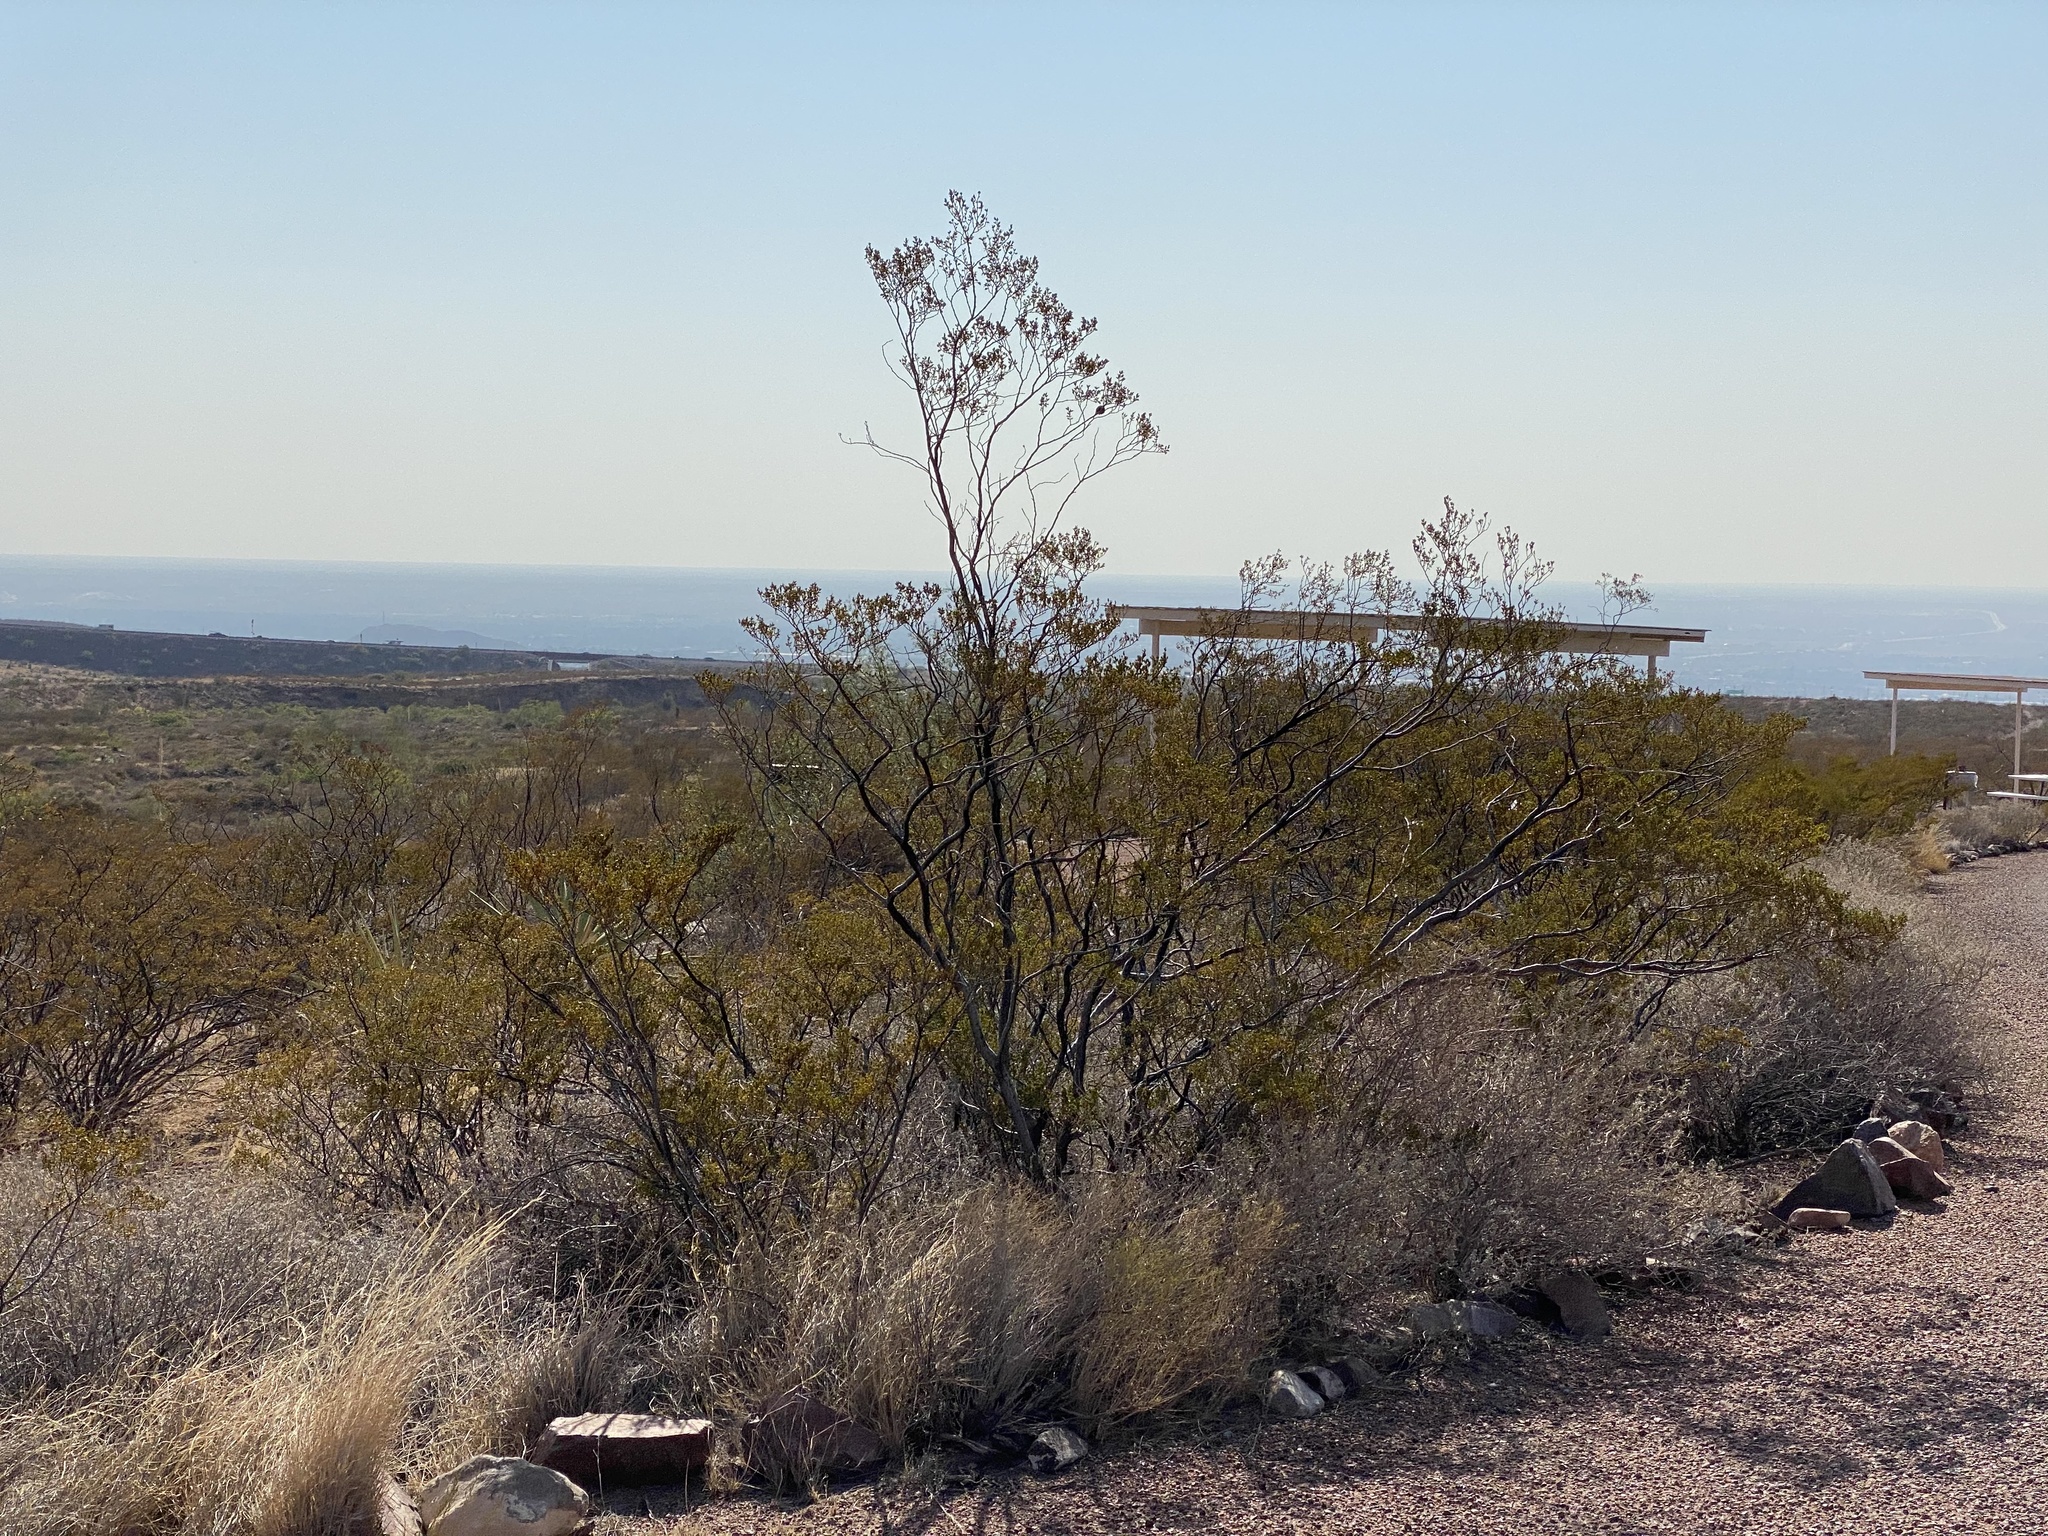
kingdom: Plantae
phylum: Tracheophyta
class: Magnoliopsida
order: Zygophyllales
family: Zygophyllaceae
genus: Larrea
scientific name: Larrea tridentata
